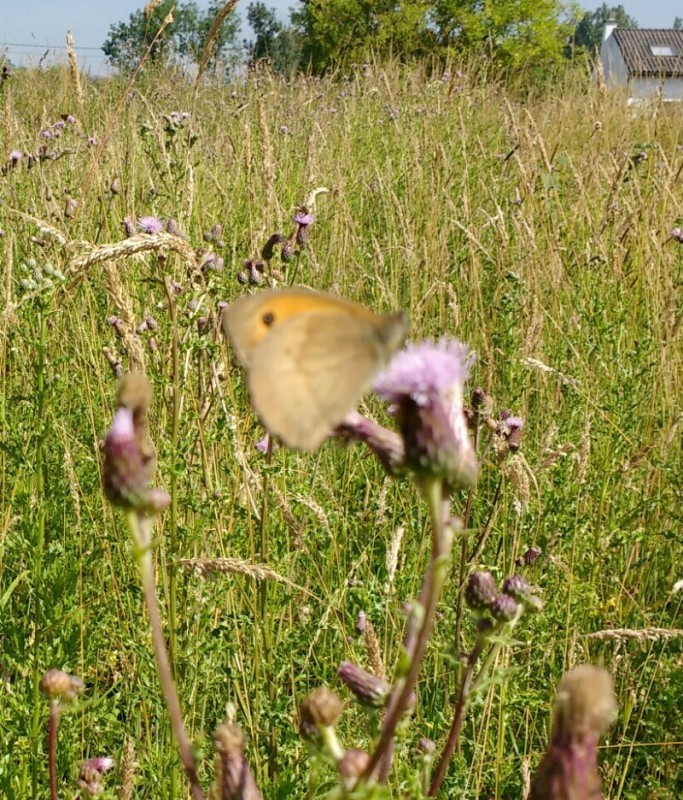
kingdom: Animalia
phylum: Arthropoda
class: Insecta
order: Lepidoptera
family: Nymphalidae
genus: Maniola
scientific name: Maniola jurtina
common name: Meadow brown
